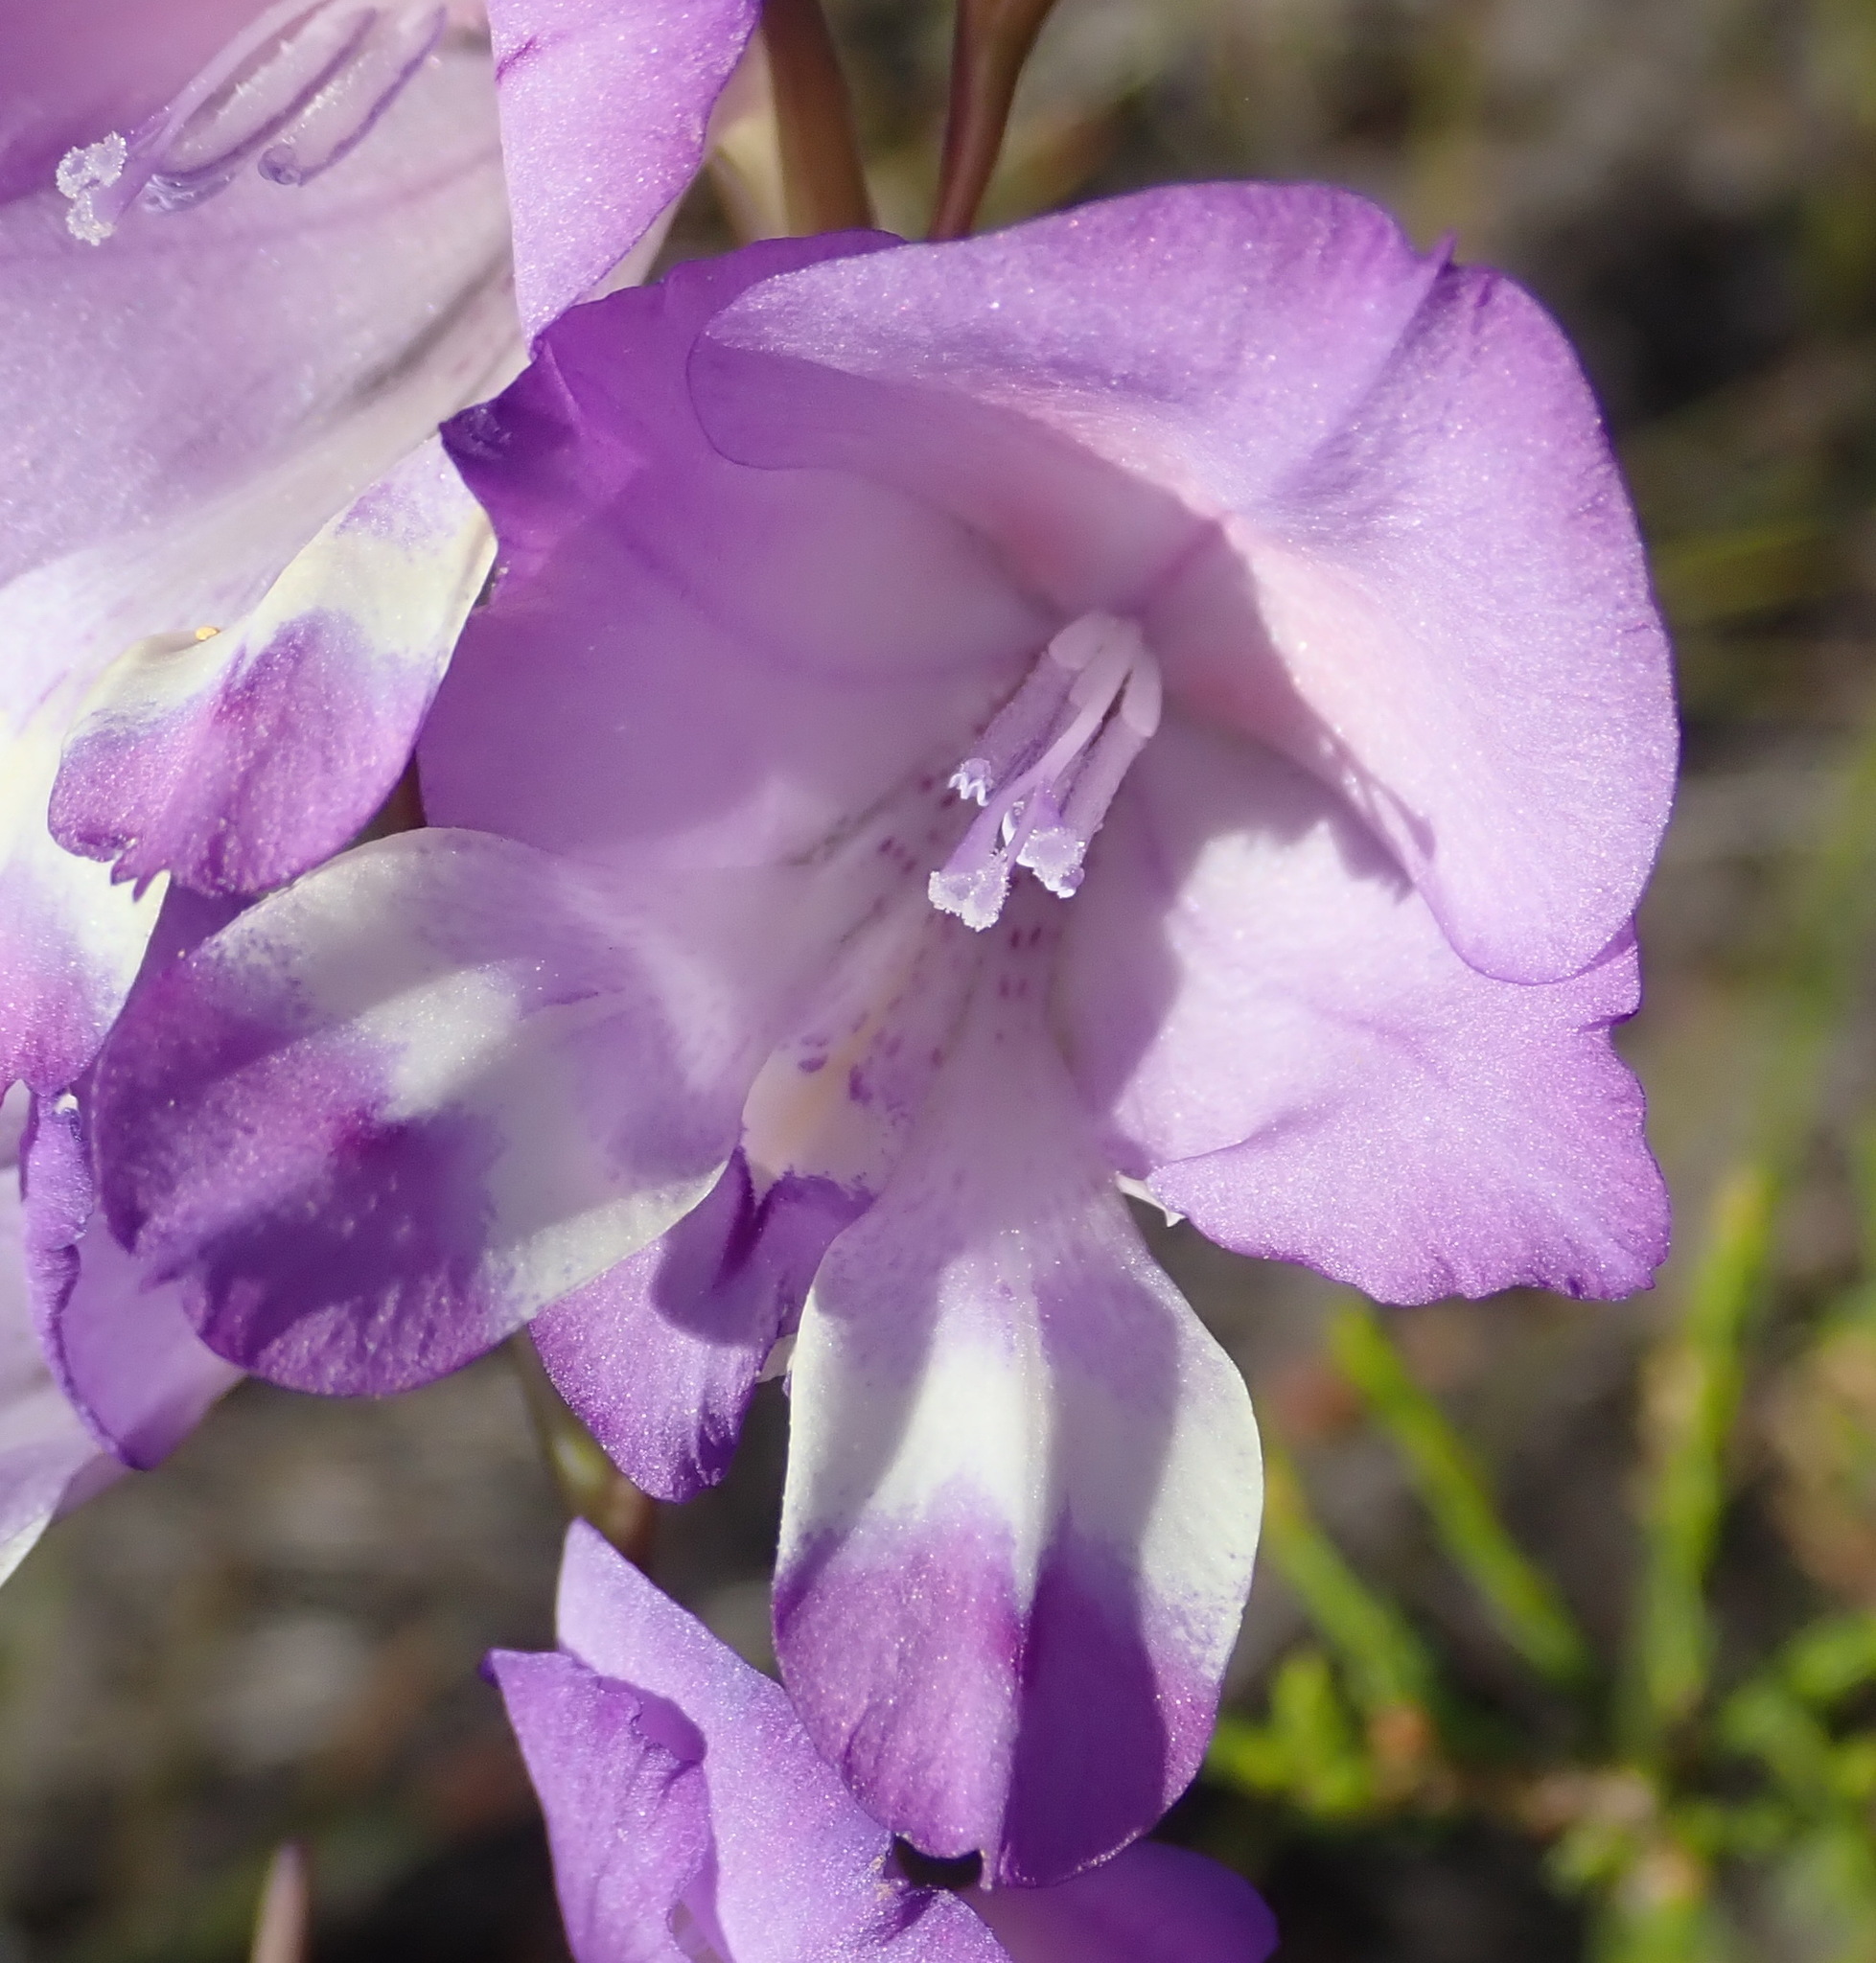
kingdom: Plantae
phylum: Tracheophyta
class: Liliopsida
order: Asparagales
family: Iridaceae
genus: Gladiolus
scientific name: Gladiolus rogersii
